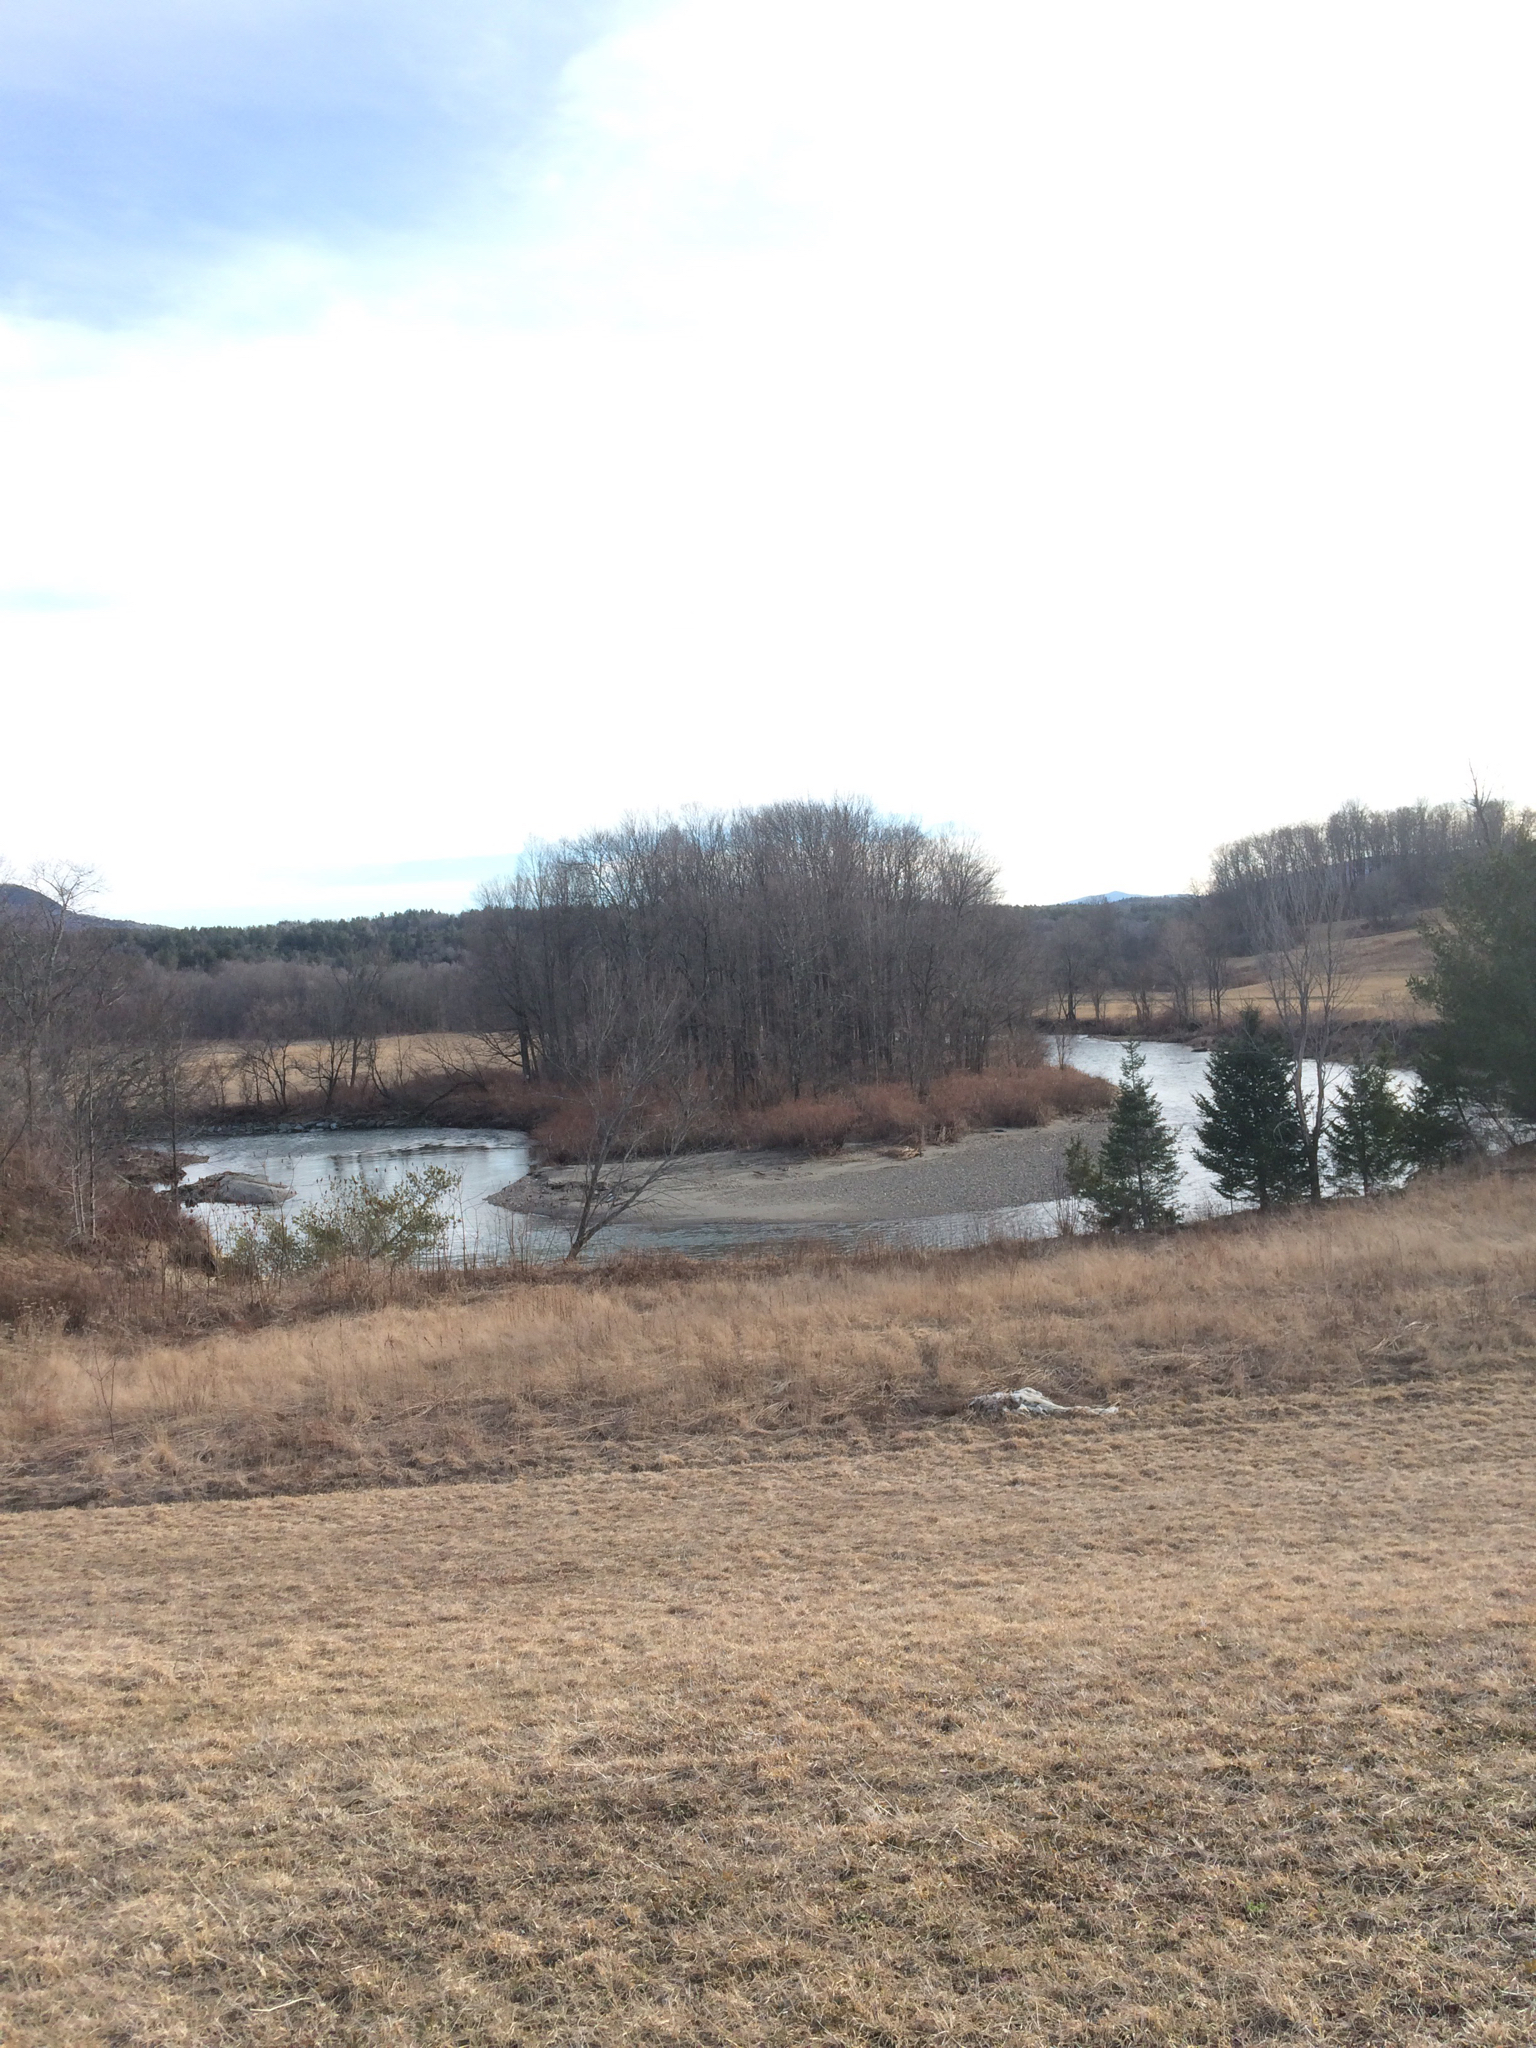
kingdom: Plantae
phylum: Tracheophyta
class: Magnoliopsida
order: Caryophyllales
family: Polygonaceae
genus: Reynoutria
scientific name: Reynoutria japonica
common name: Japanese knotweed
